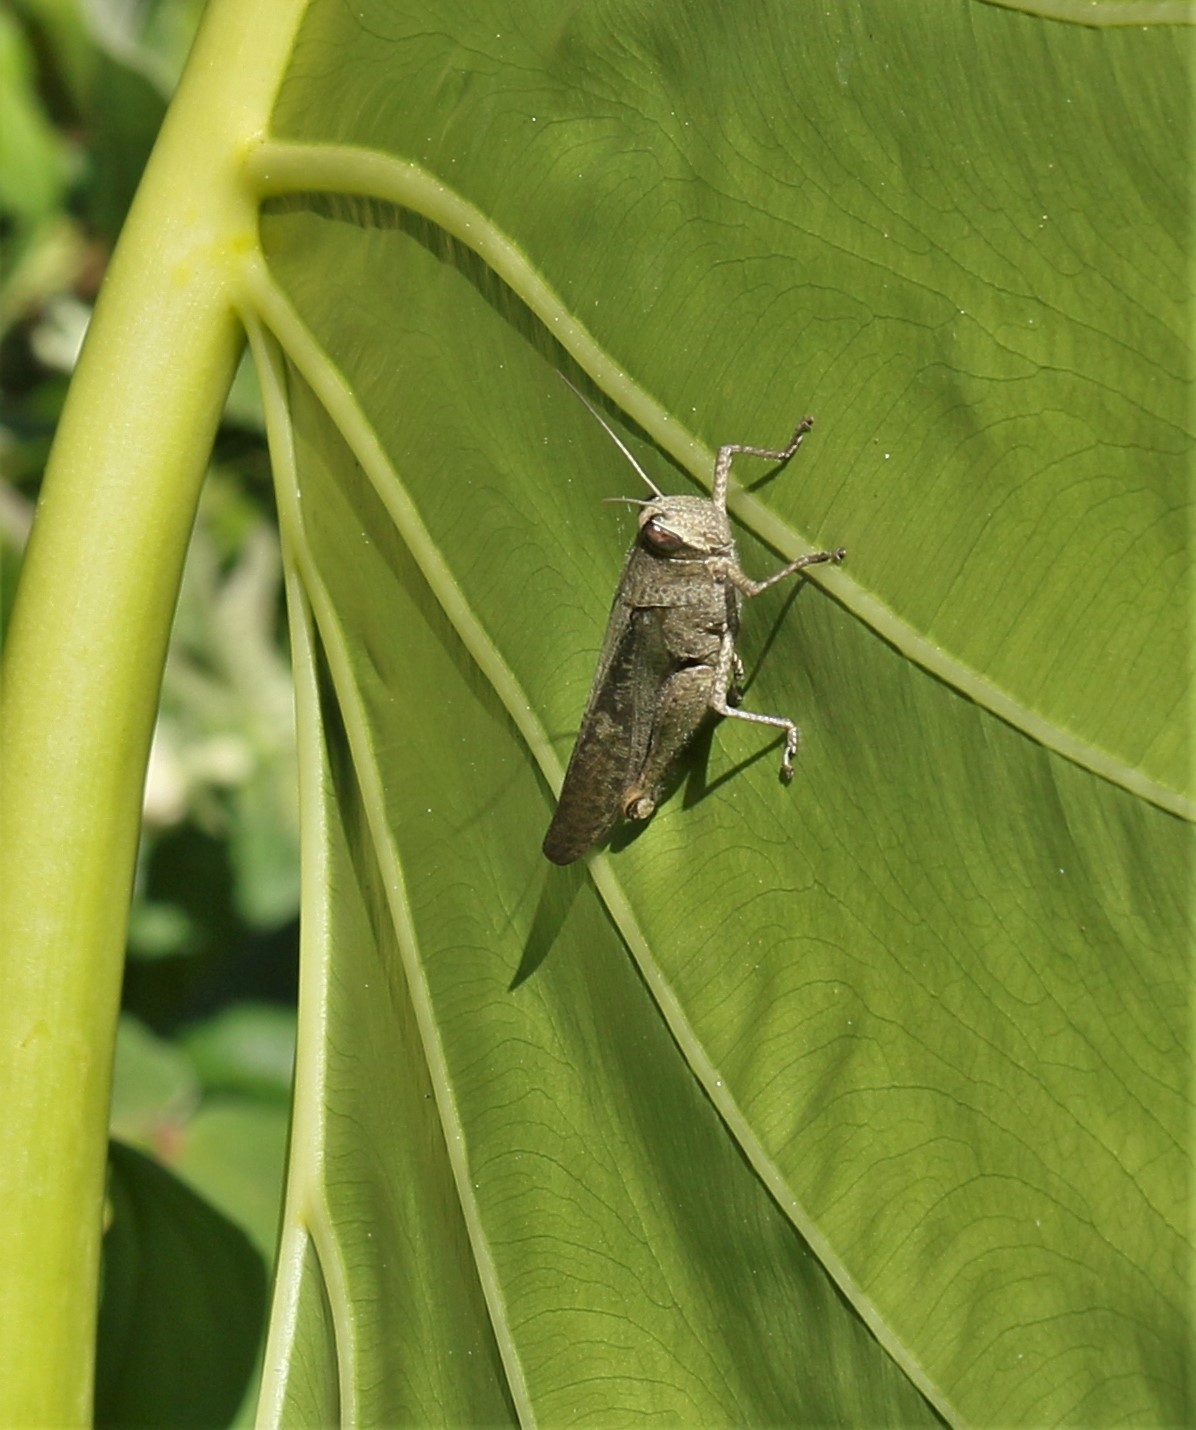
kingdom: Animalia
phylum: Arthropoda
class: Insecta
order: Orthoptera
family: Acrididae
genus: Schistocerca
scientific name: Schistocerca nitens
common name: Vagrant grasshopper
